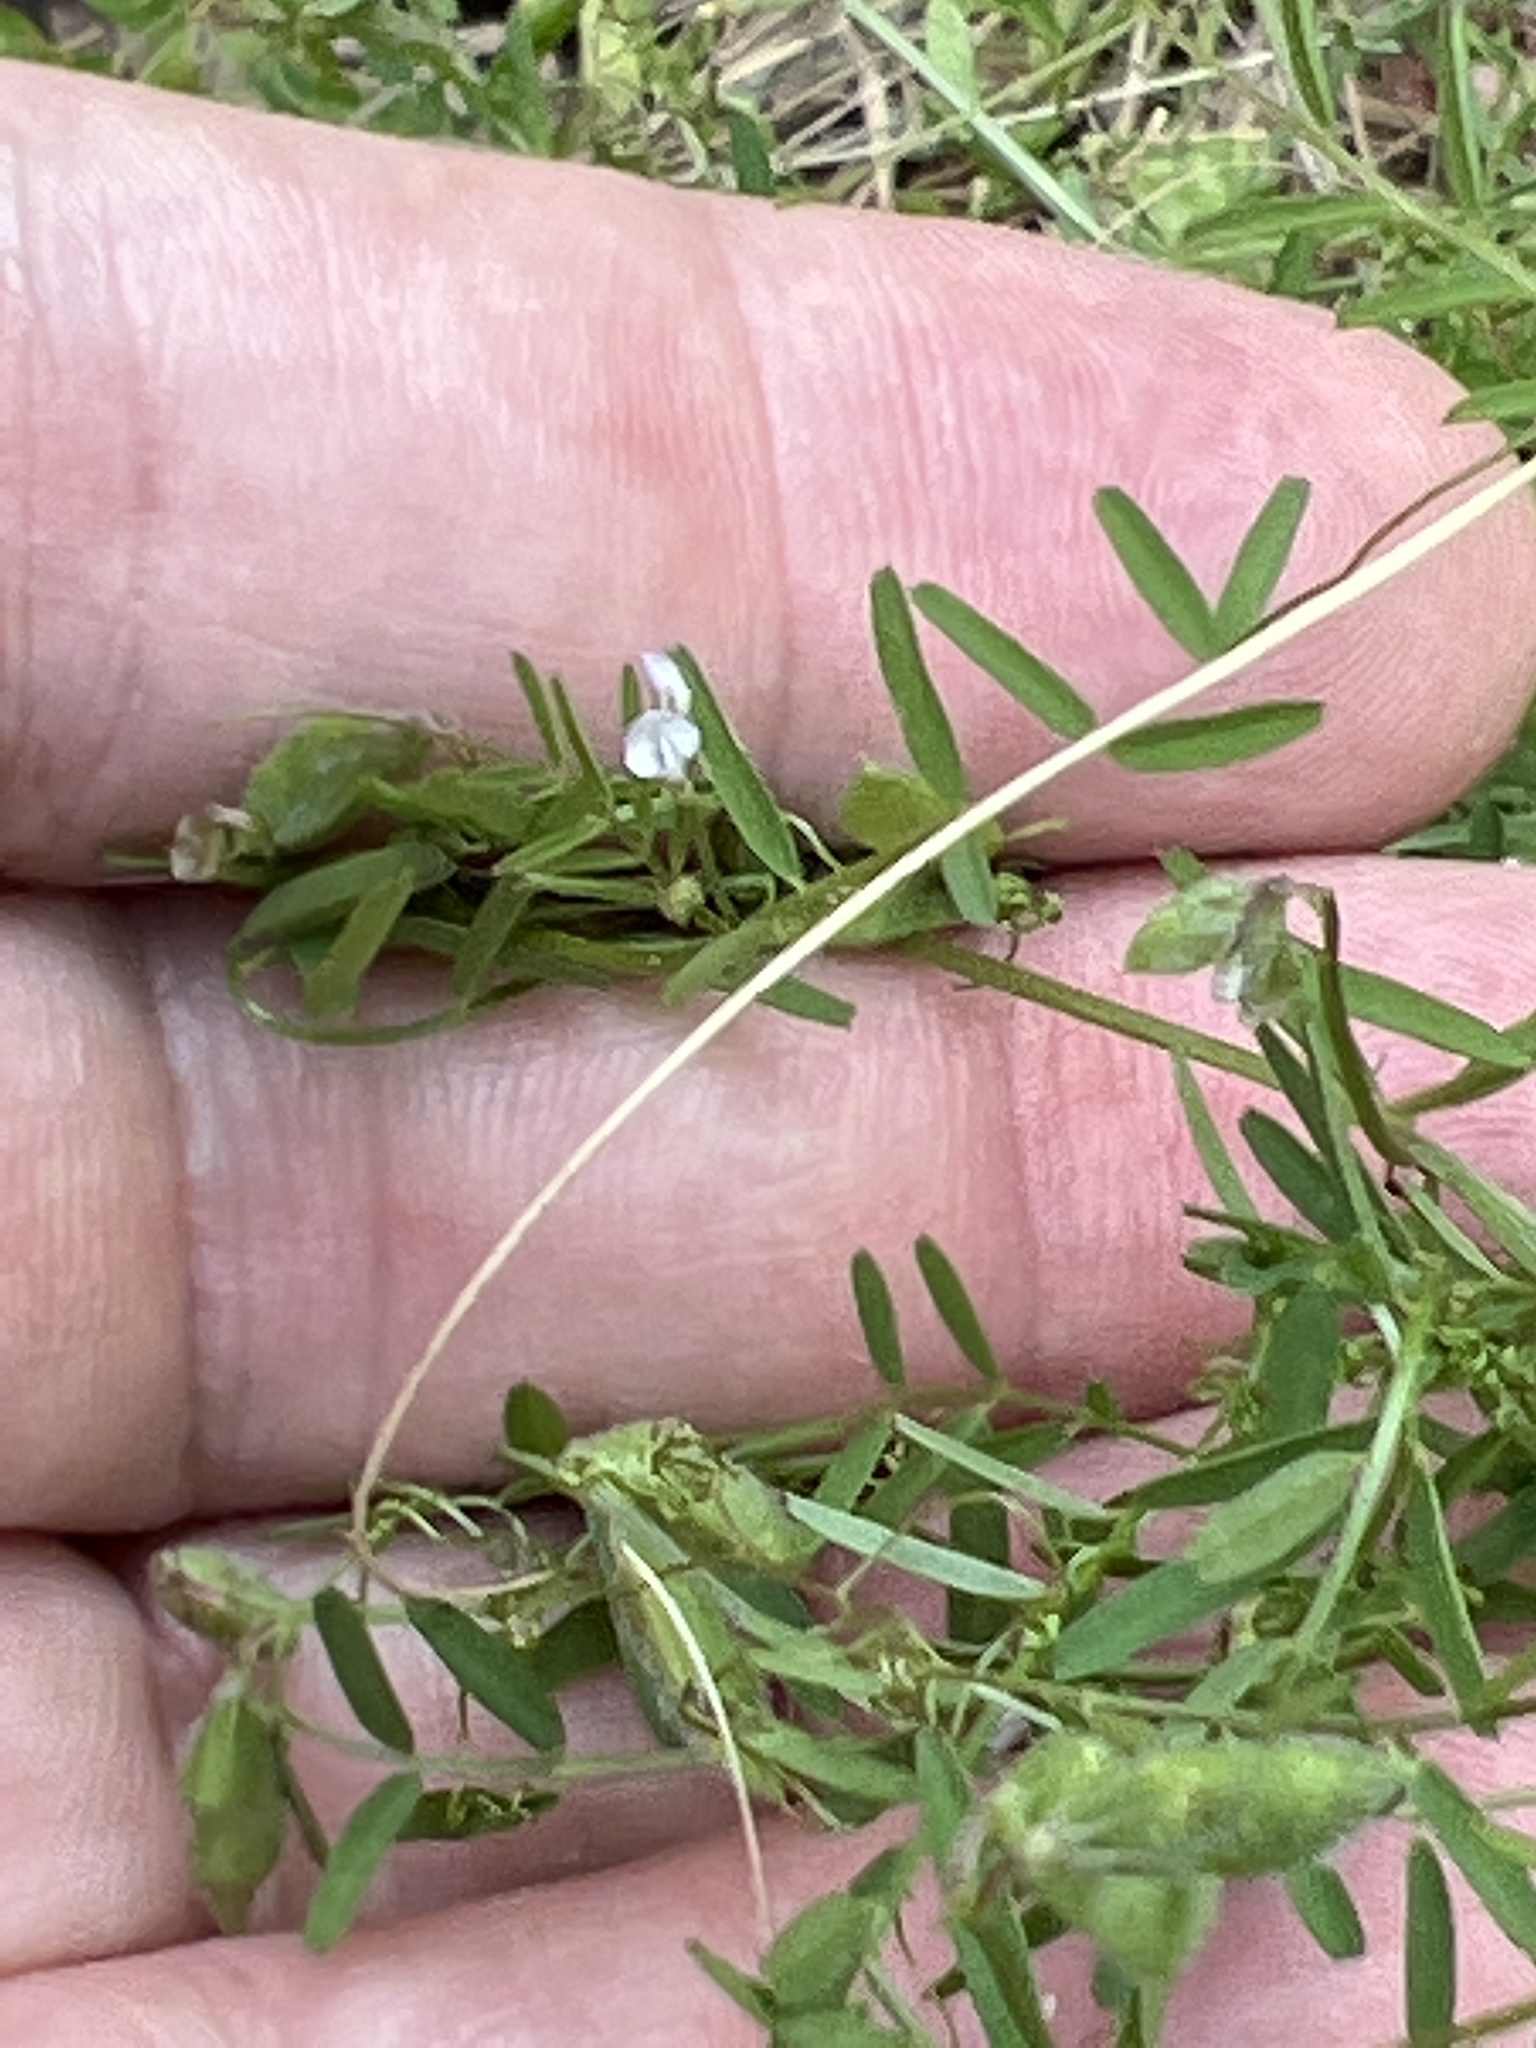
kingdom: Plantae
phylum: Tracheophyta
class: Magnoliopsida
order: Fabales
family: Fabaceae
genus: Vicia
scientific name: Vicia hirsuta
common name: Tiny vetch
